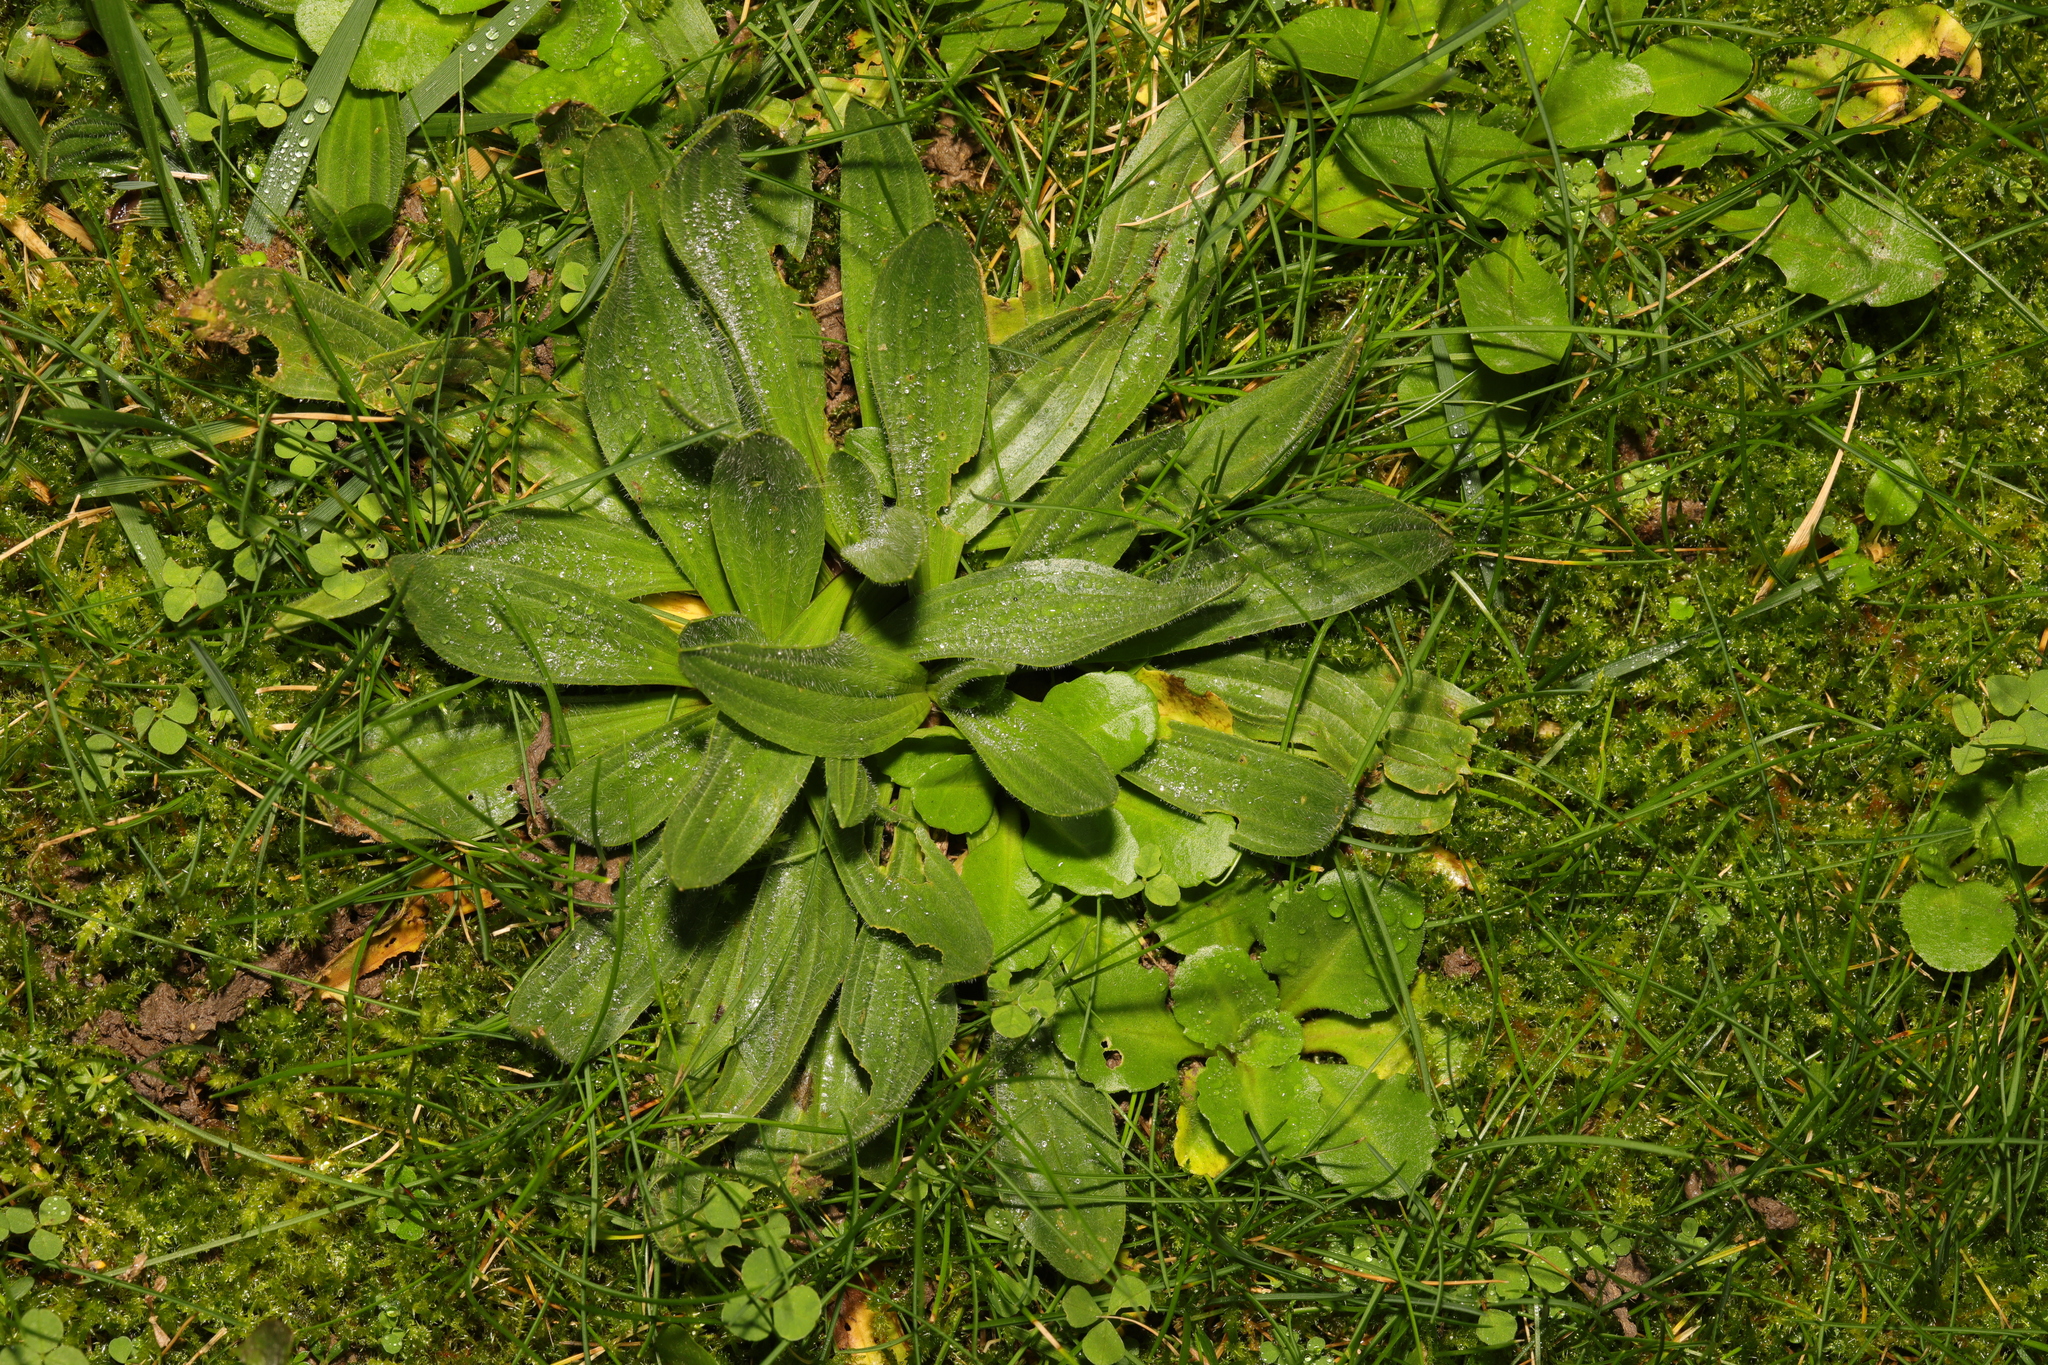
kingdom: Plantae
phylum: Tracheophyta
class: Magnoliopsida
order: Lamiales
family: Plantaginaceae
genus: Plantago
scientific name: Plantago media
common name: Hoary plantain
